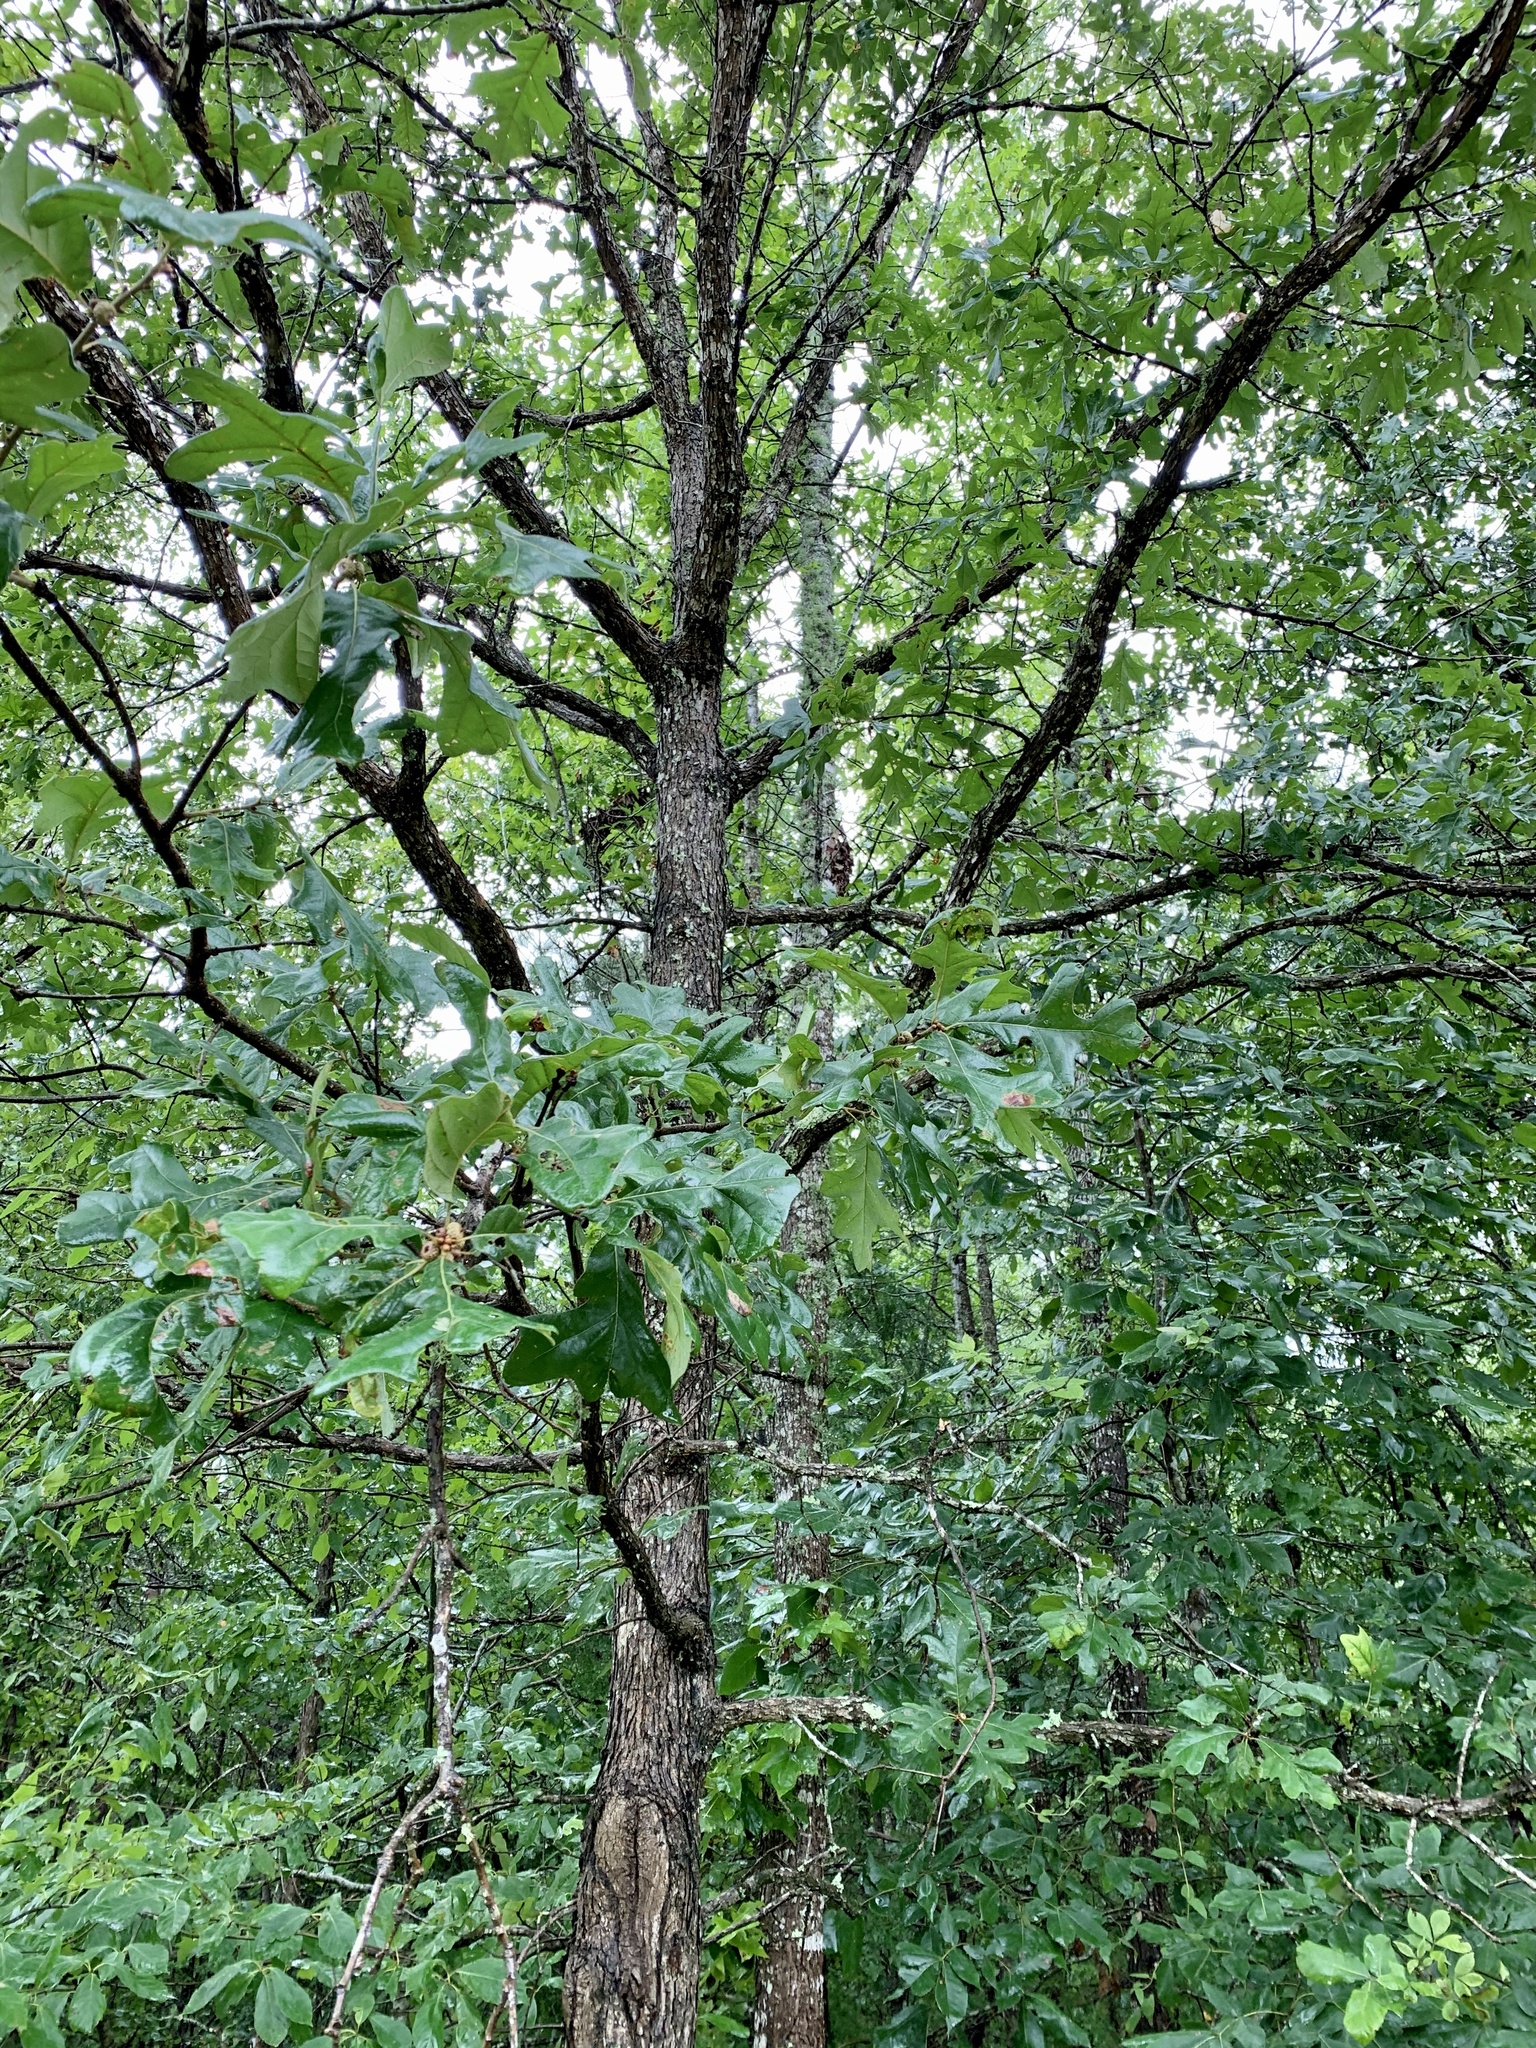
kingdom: Plantae
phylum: Tracheophyta
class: Magnoliopsida
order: Fagales
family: Fagaceae
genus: Quercus
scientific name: Quercus stellata
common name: Post oak
